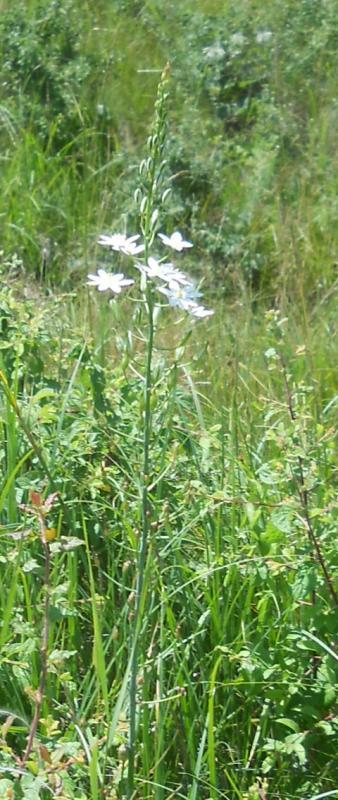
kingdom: Plantae
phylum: Tracheophyta
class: Liliopsida
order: Asparagales
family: Asparagaceae
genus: Ornithogalum
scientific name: Ornithogalum pyramidale
